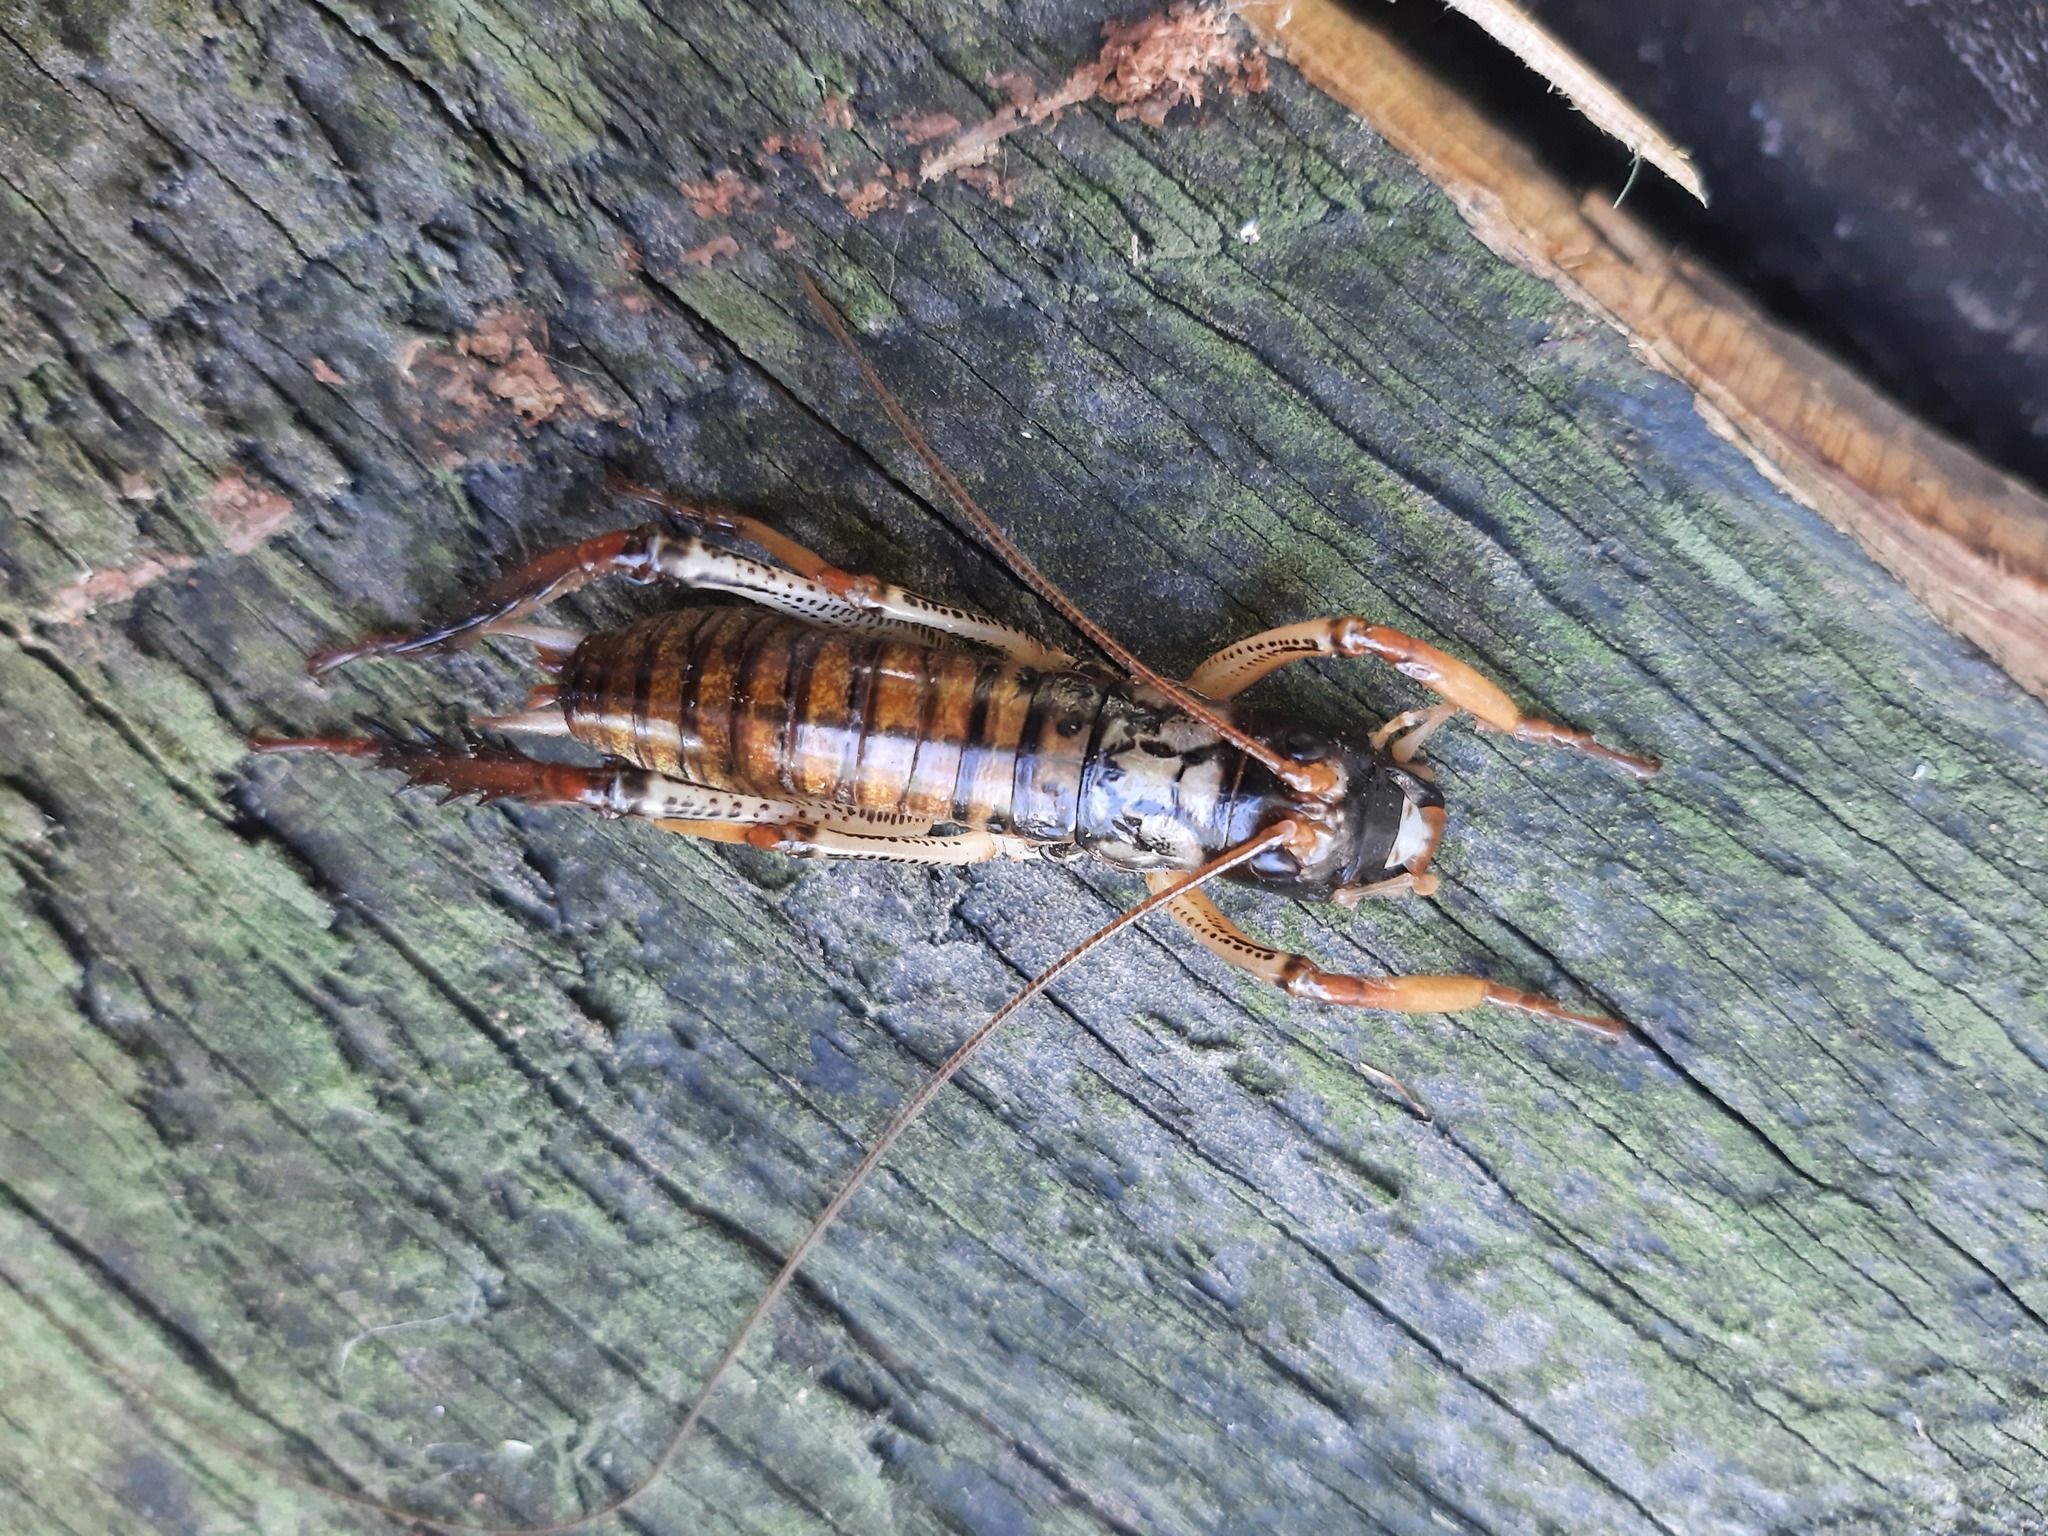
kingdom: Animalia
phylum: Arthropoda
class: Insecta
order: Orthoptera
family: Anostostomatidae
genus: Hemideina
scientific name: Hemideina thoracica
